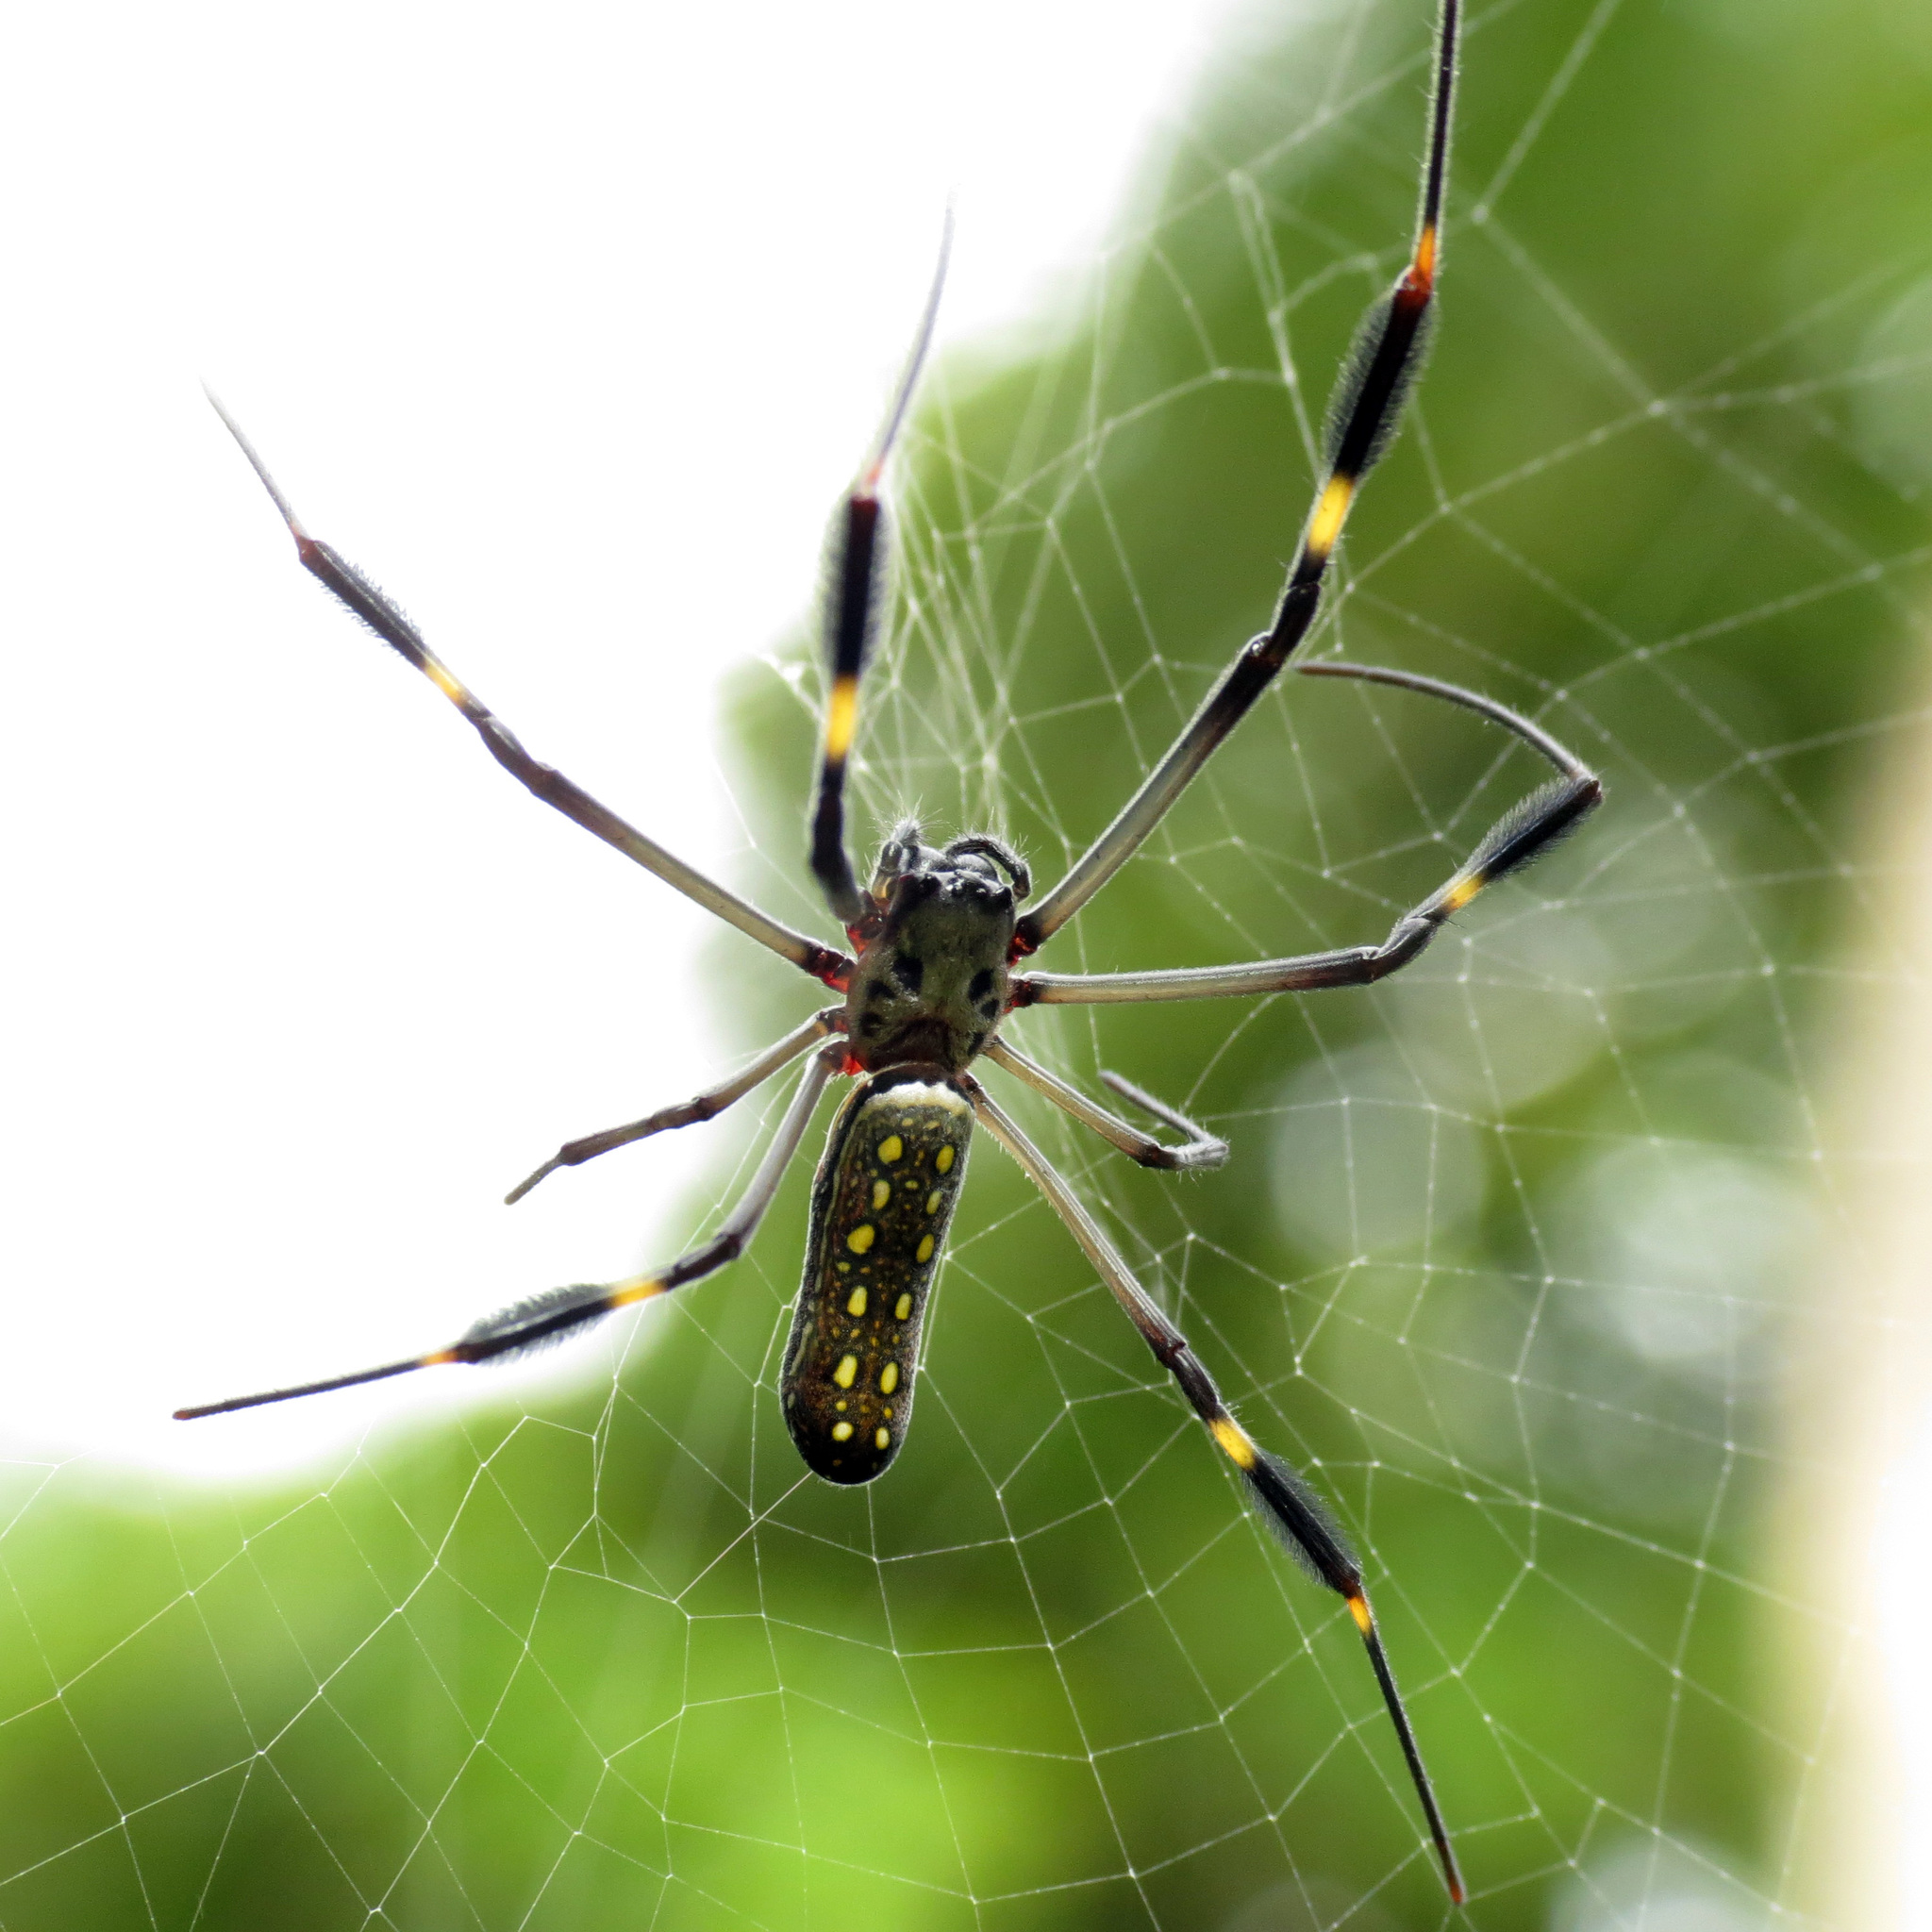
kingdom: Animalia
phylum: Arthropoda
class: Arachnida
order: Araneae
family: Araneidae
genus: Trichonephila
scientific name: Trichonephila clavipes
